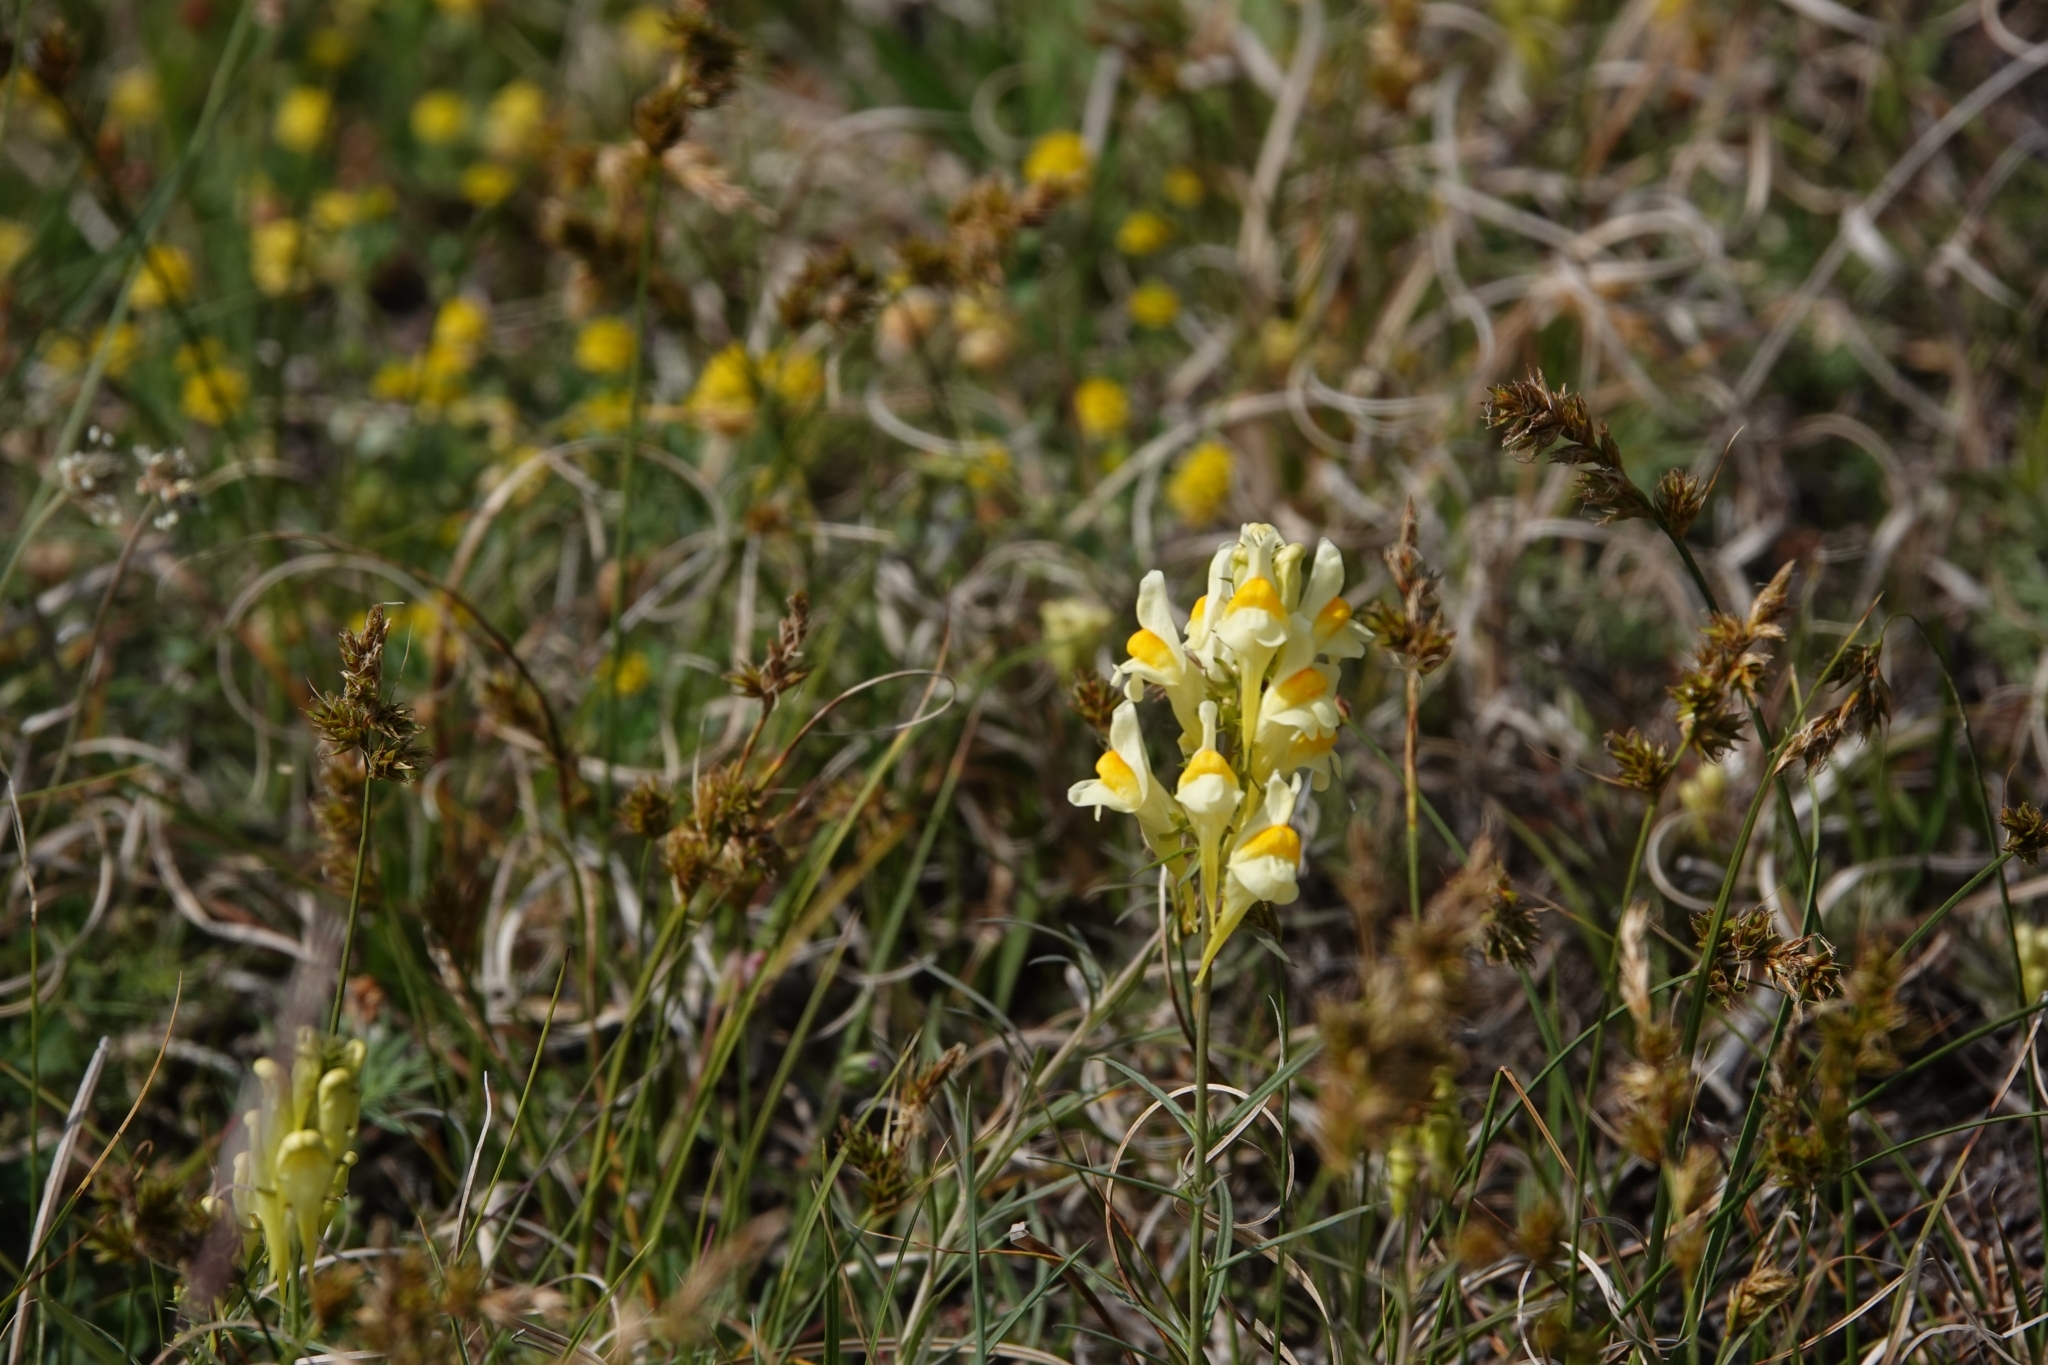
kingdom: Plantae
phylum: Tracheophyta
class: Magnoliopsida
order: Lamiales
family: Plantaginaceae
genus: Linaria
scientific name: Linaria vulgaris
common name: Butter and eggs
